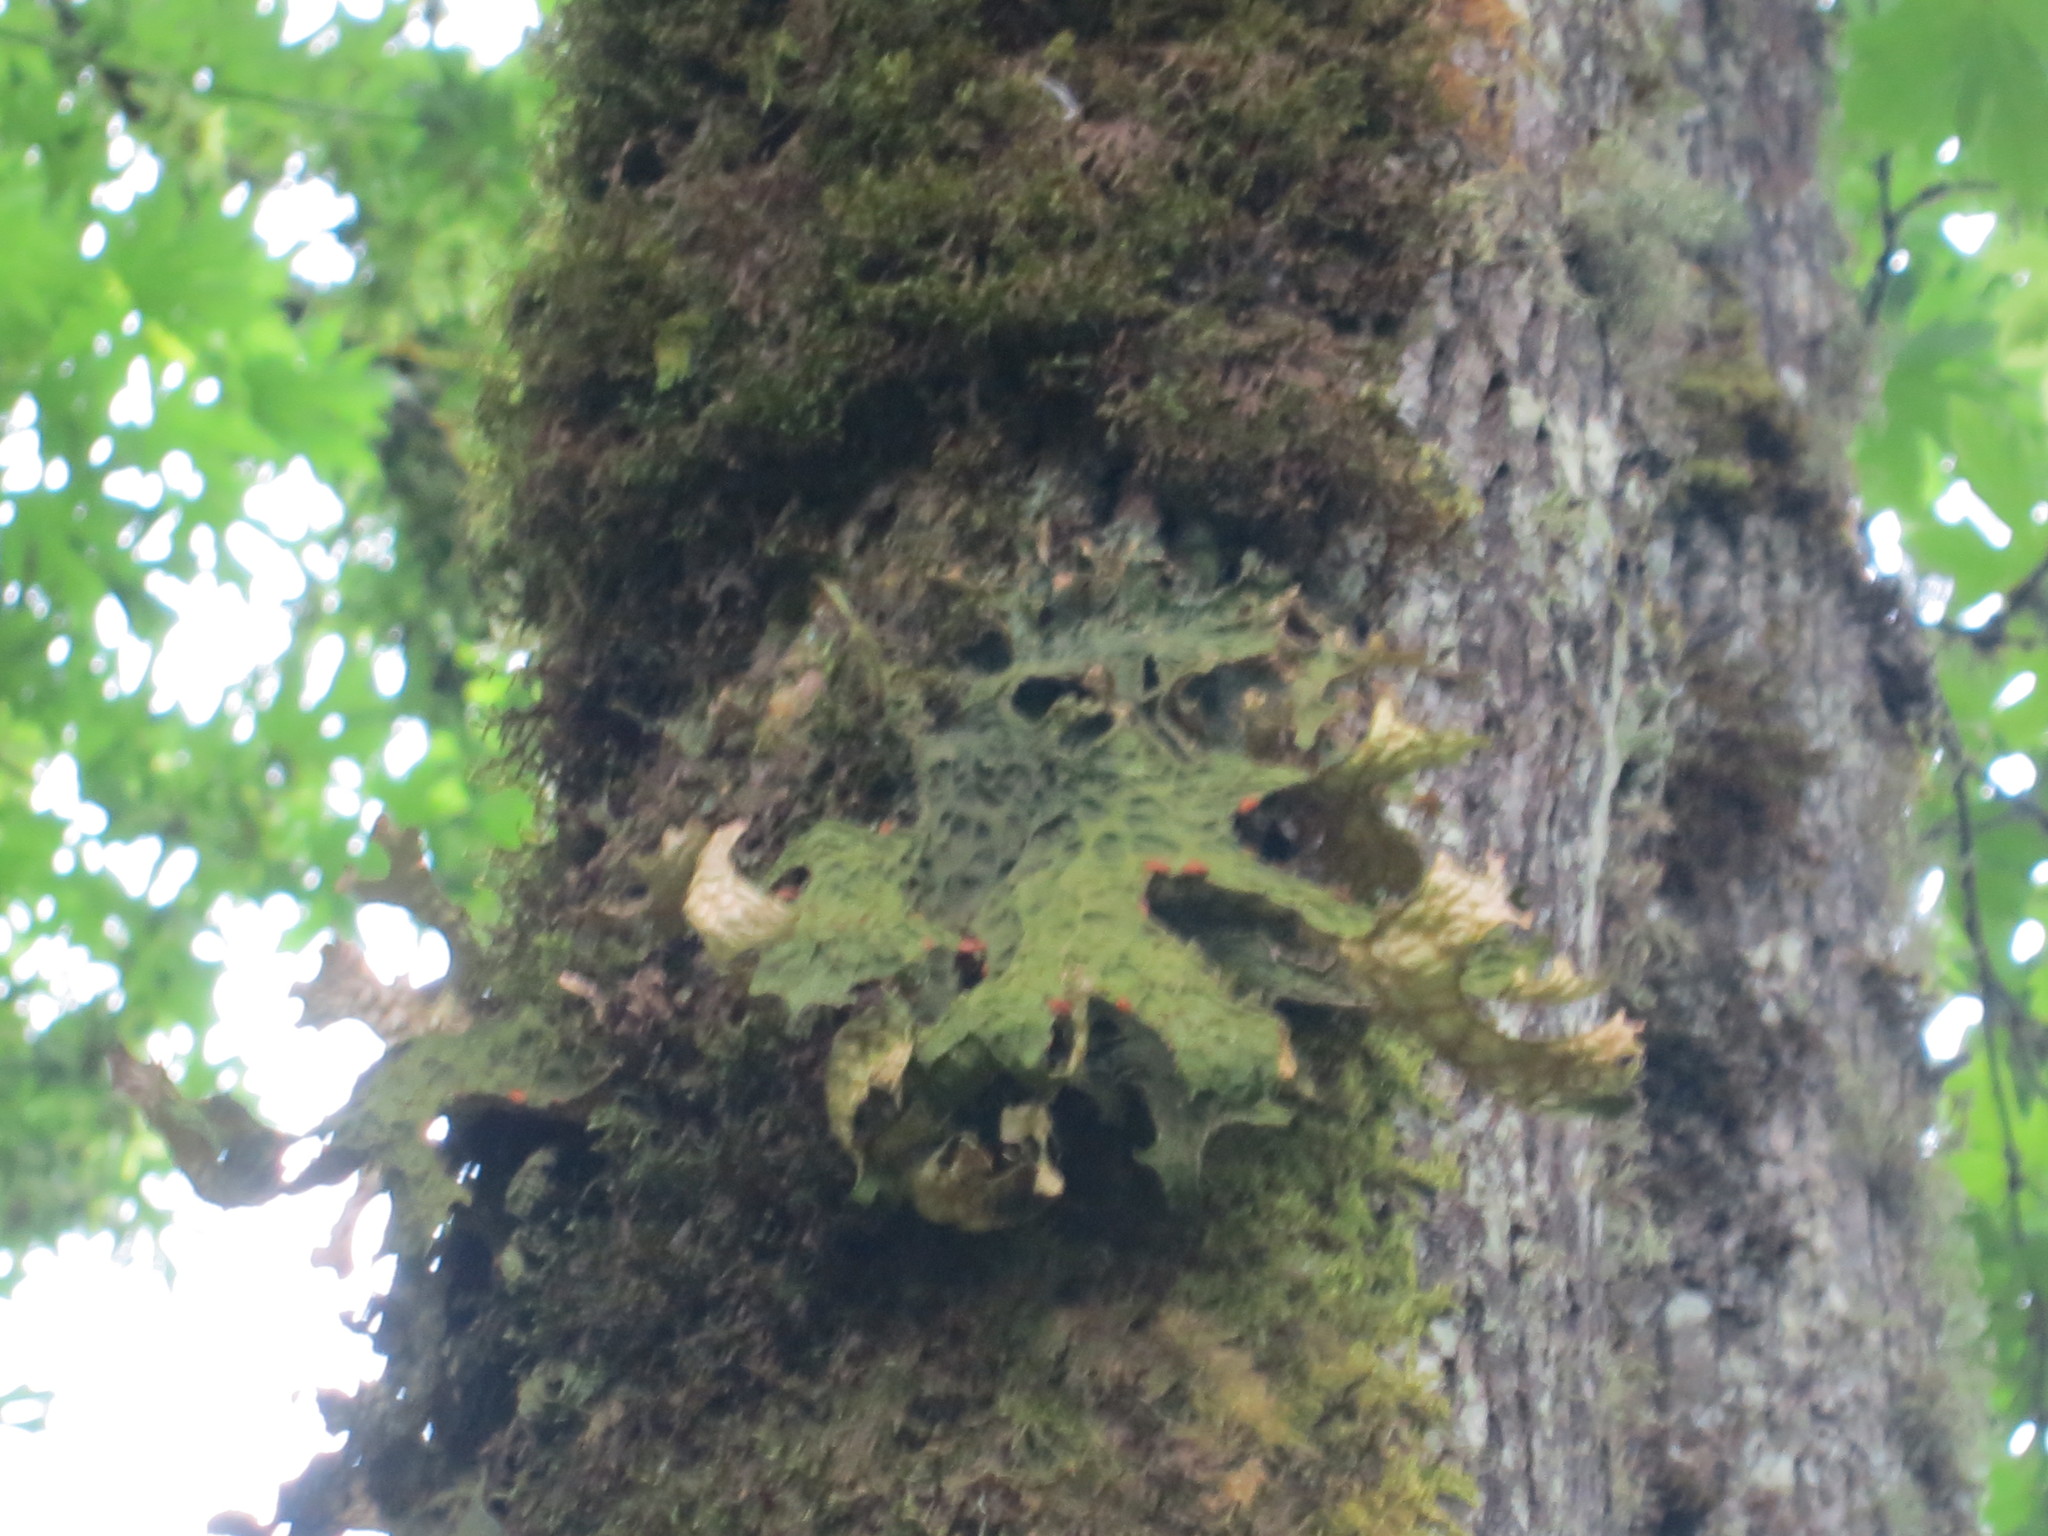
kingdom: Fungi
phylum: Ascomycota
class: Lecanoromycetes
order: Peltigerales
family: Lobariaceae
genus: Lobaria
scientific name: Lobaria pulmonaria
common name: Lungwort
